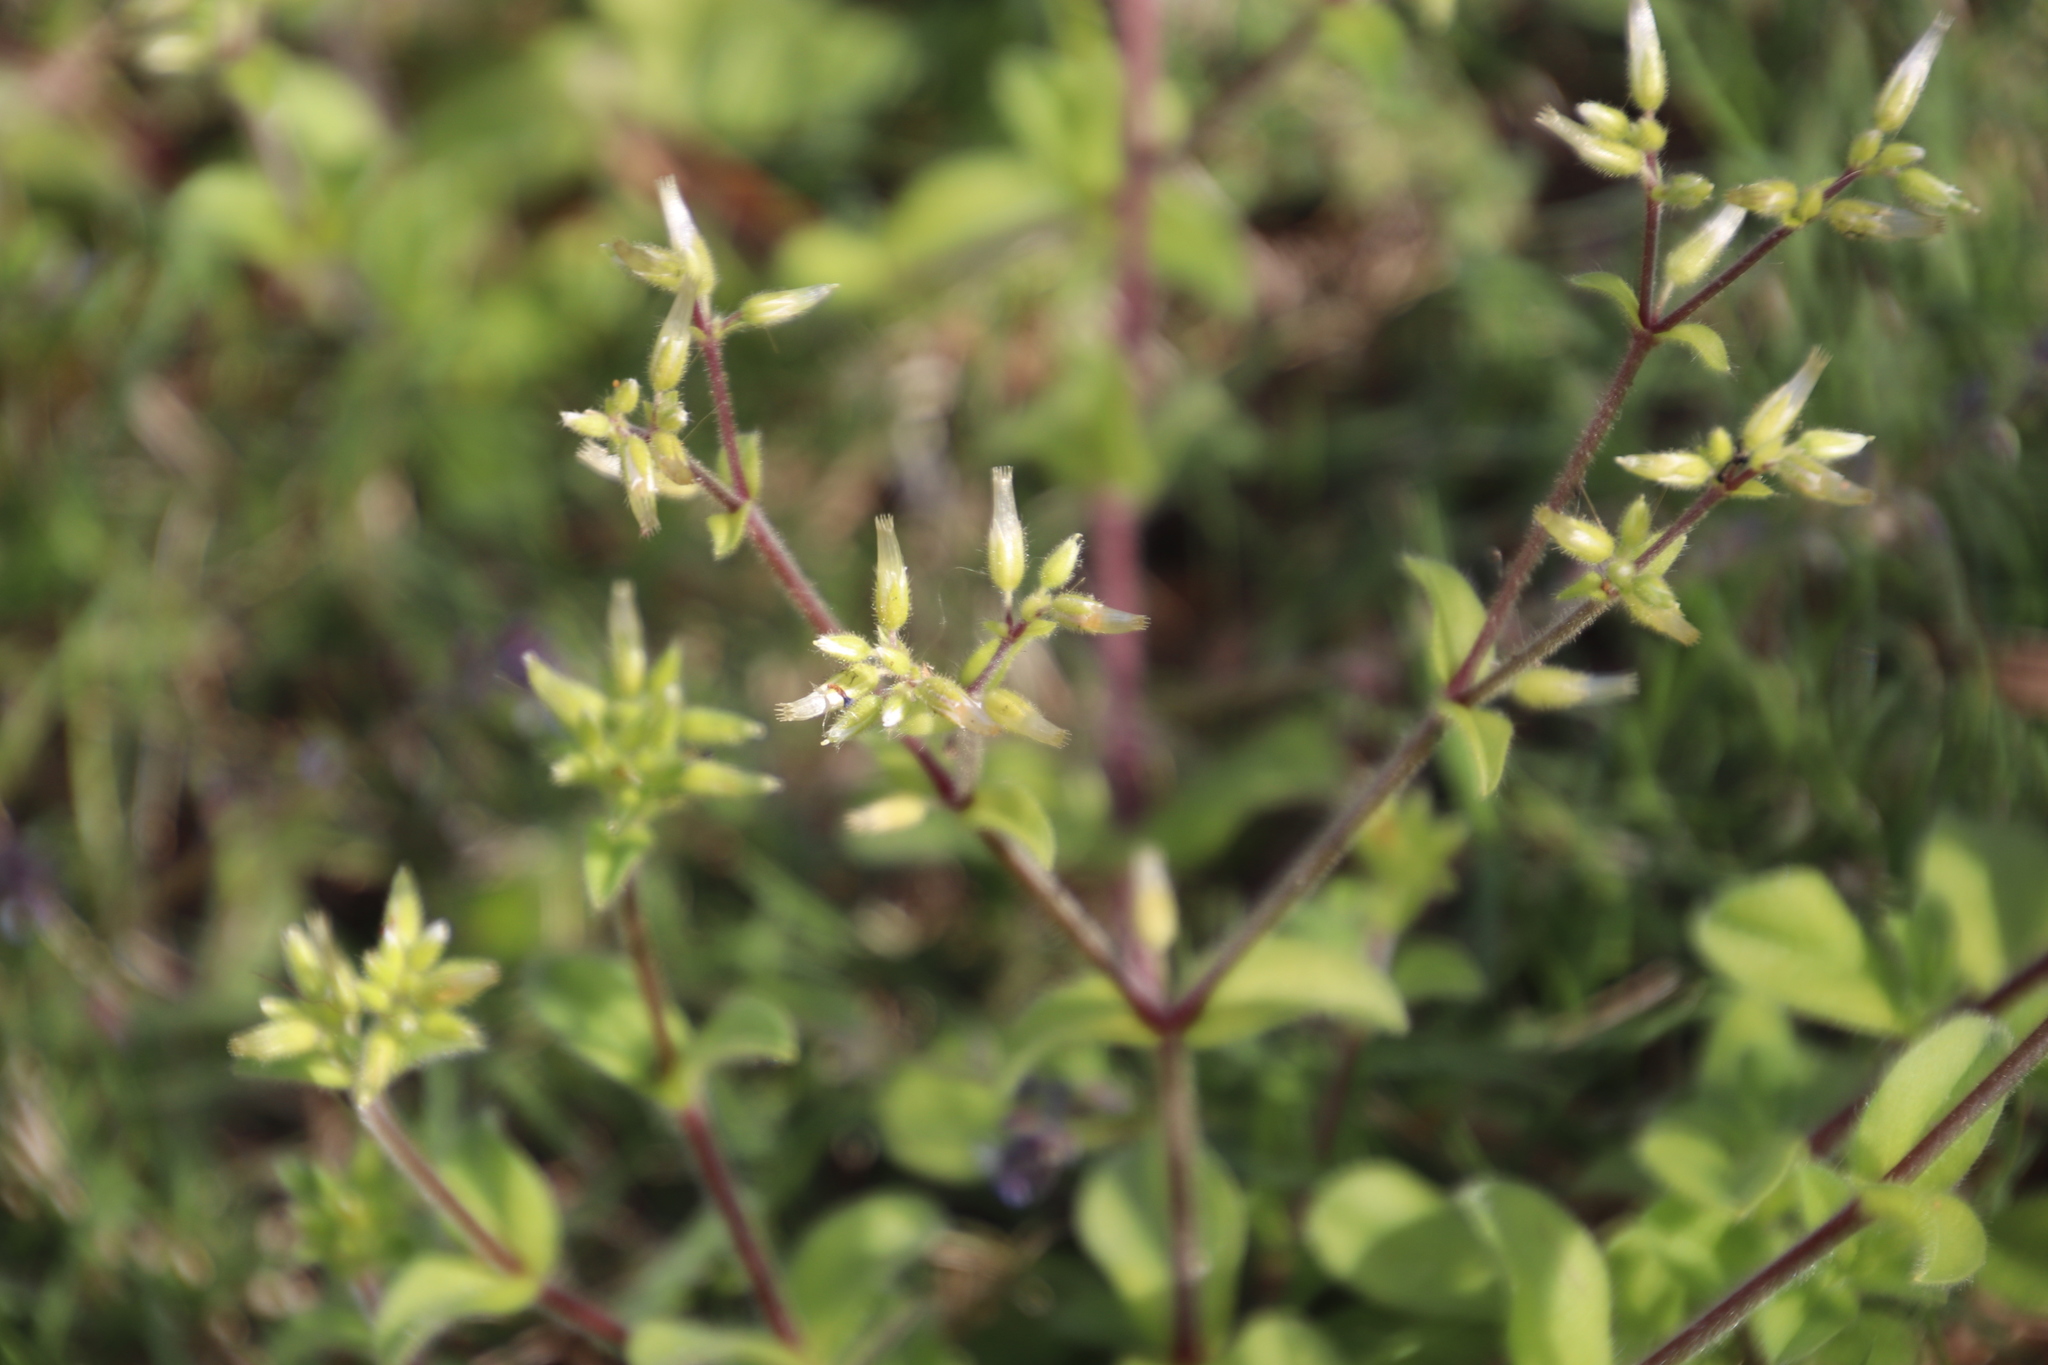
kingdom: Plantae
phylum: Tracheophyta
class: Magnoliopsida
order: Caryophyllales
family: Caryophyllaceae
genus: Cerastium
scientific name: Cerastium glomeratum
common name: Sticky chickweed
